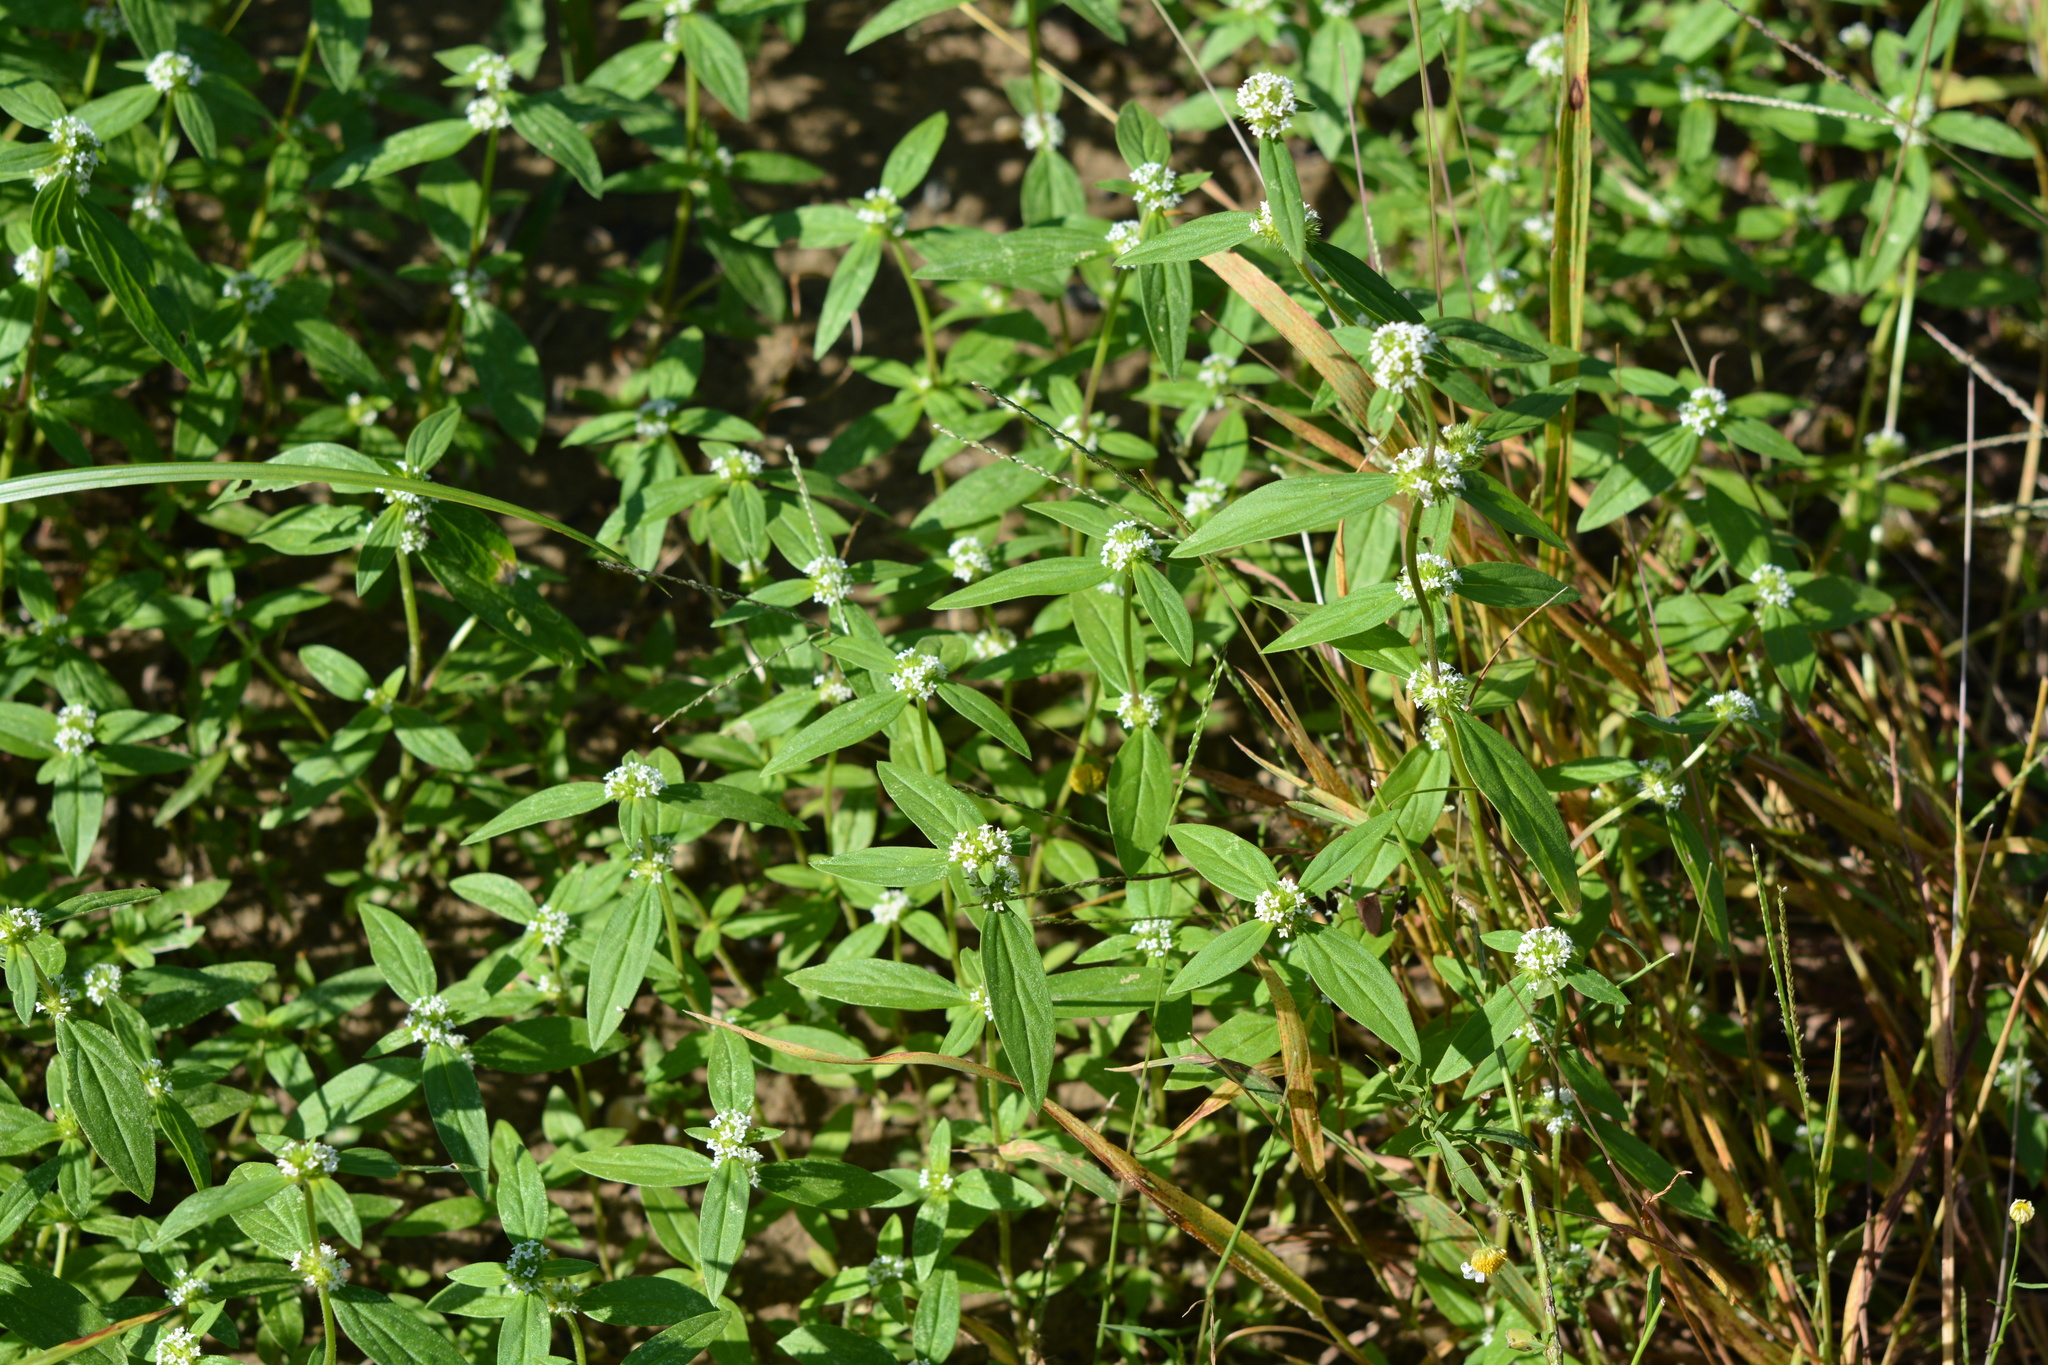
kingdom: Plantae
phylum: Tracheophyta
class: Magnoliopsida
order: Gentianales
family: Rubiaceae
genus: Spermacoce
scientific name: Spermacoce glabra
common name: Smooth buttonweed
